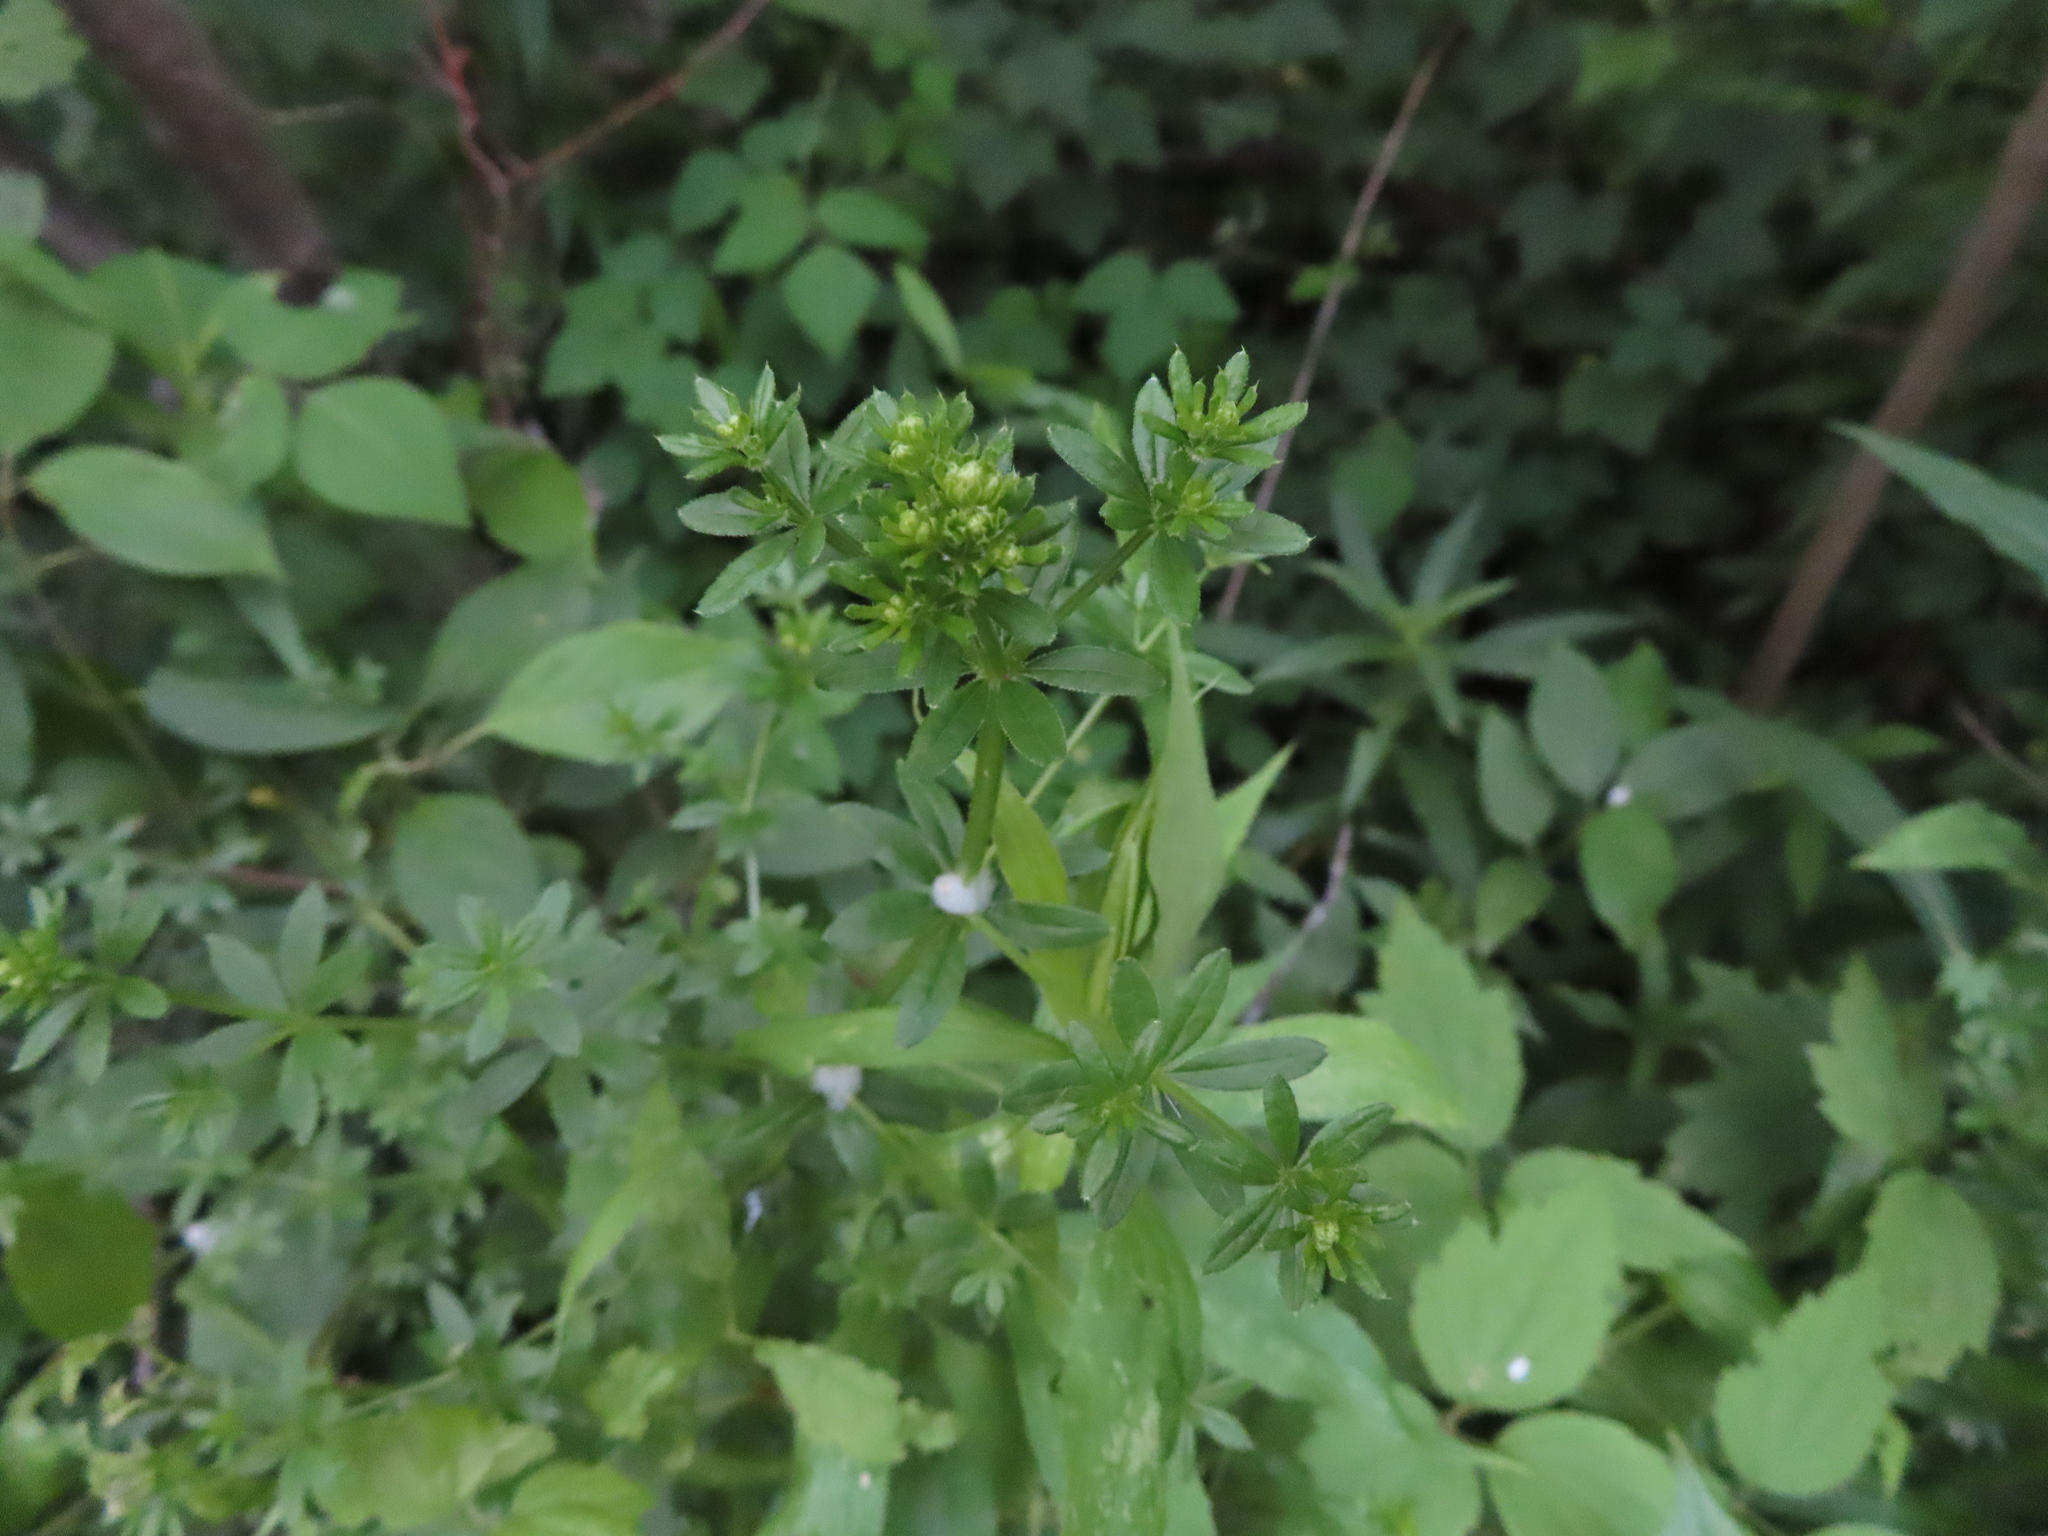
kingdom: Plantae
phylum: Tracheophyta
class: Magnoliopsida
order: Gentianales
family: Rubiaceae
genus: Galium
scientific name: Galium asprellum
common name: Rough bedstraw
